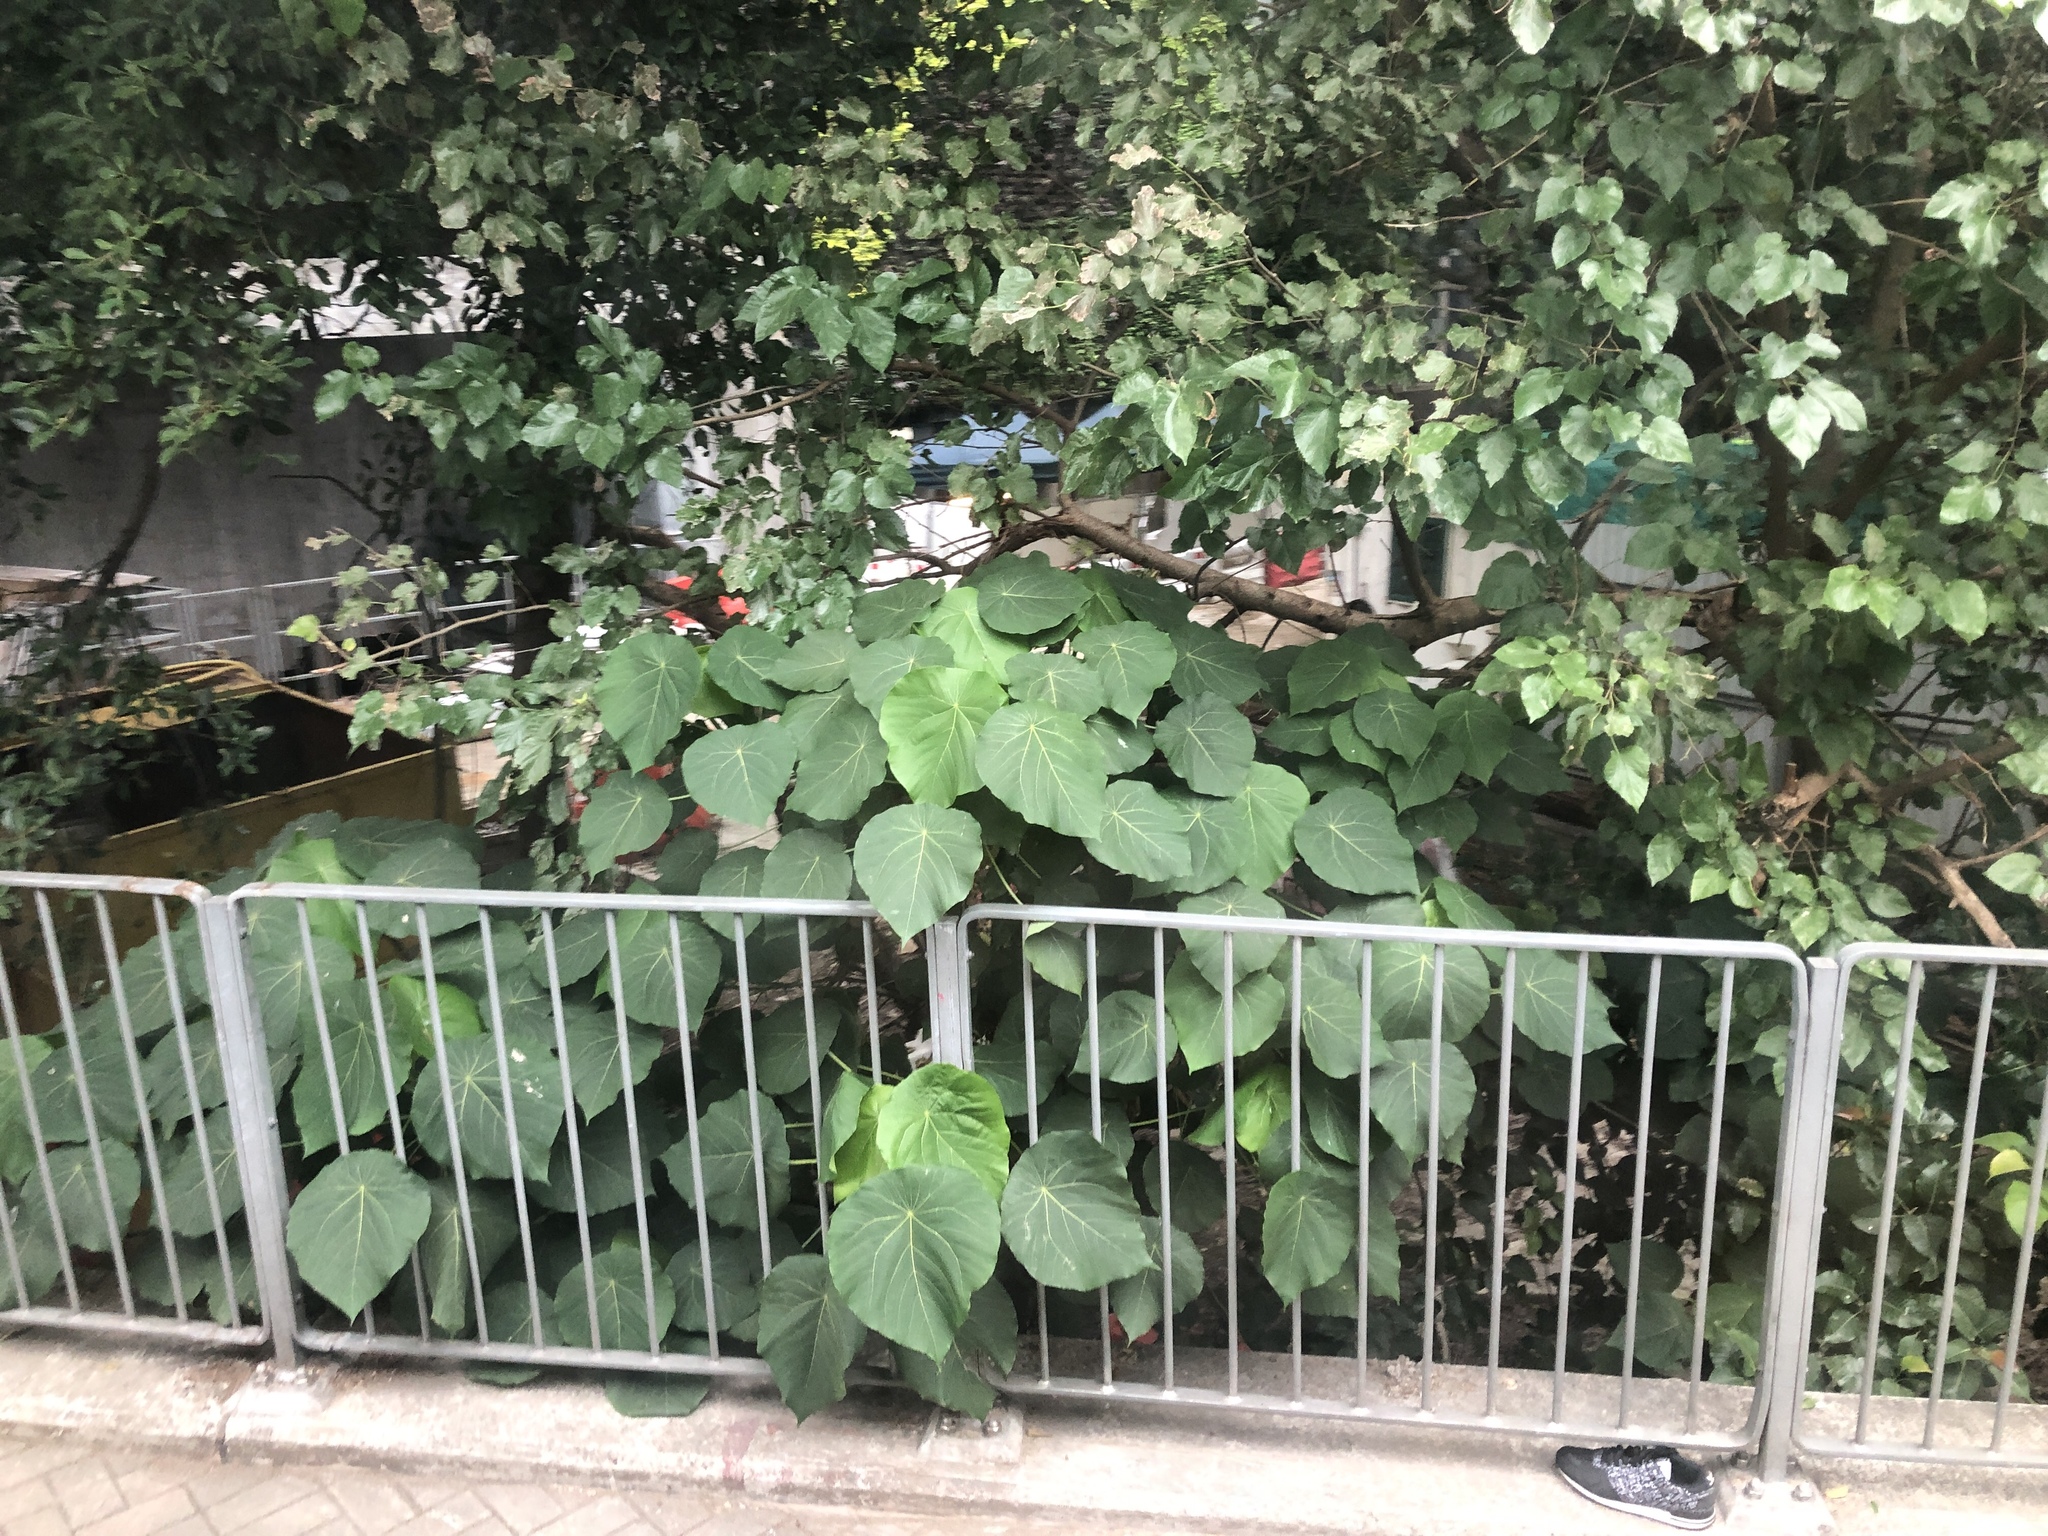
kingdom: Plantae
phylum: Tracheophyta
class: Magnoliopsida
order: Malpighiales
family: Euphorbiaceae
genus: Macaranga
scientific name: Macaranga tanarius
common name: Parasol leaf tree
